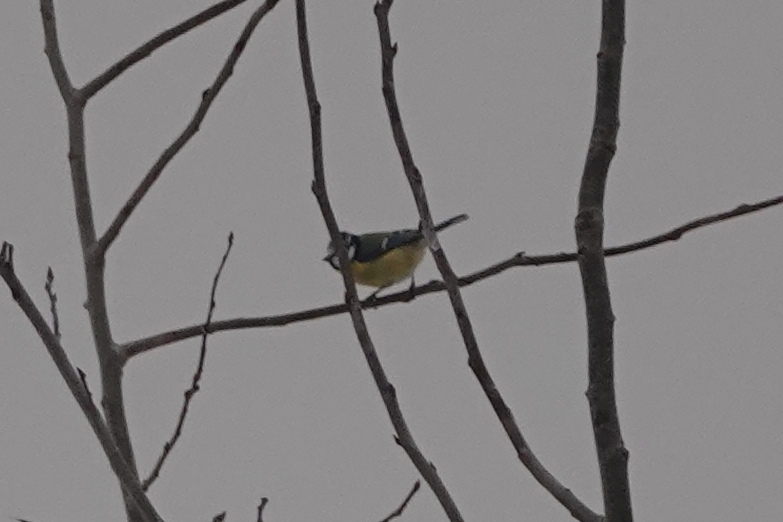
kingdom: Animalia
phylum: Chordata
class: Aves
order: Passeriformes
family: Paridae
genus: Cyanistes
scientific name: Cyanistes caeruleus
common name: Eurasian blue tit
